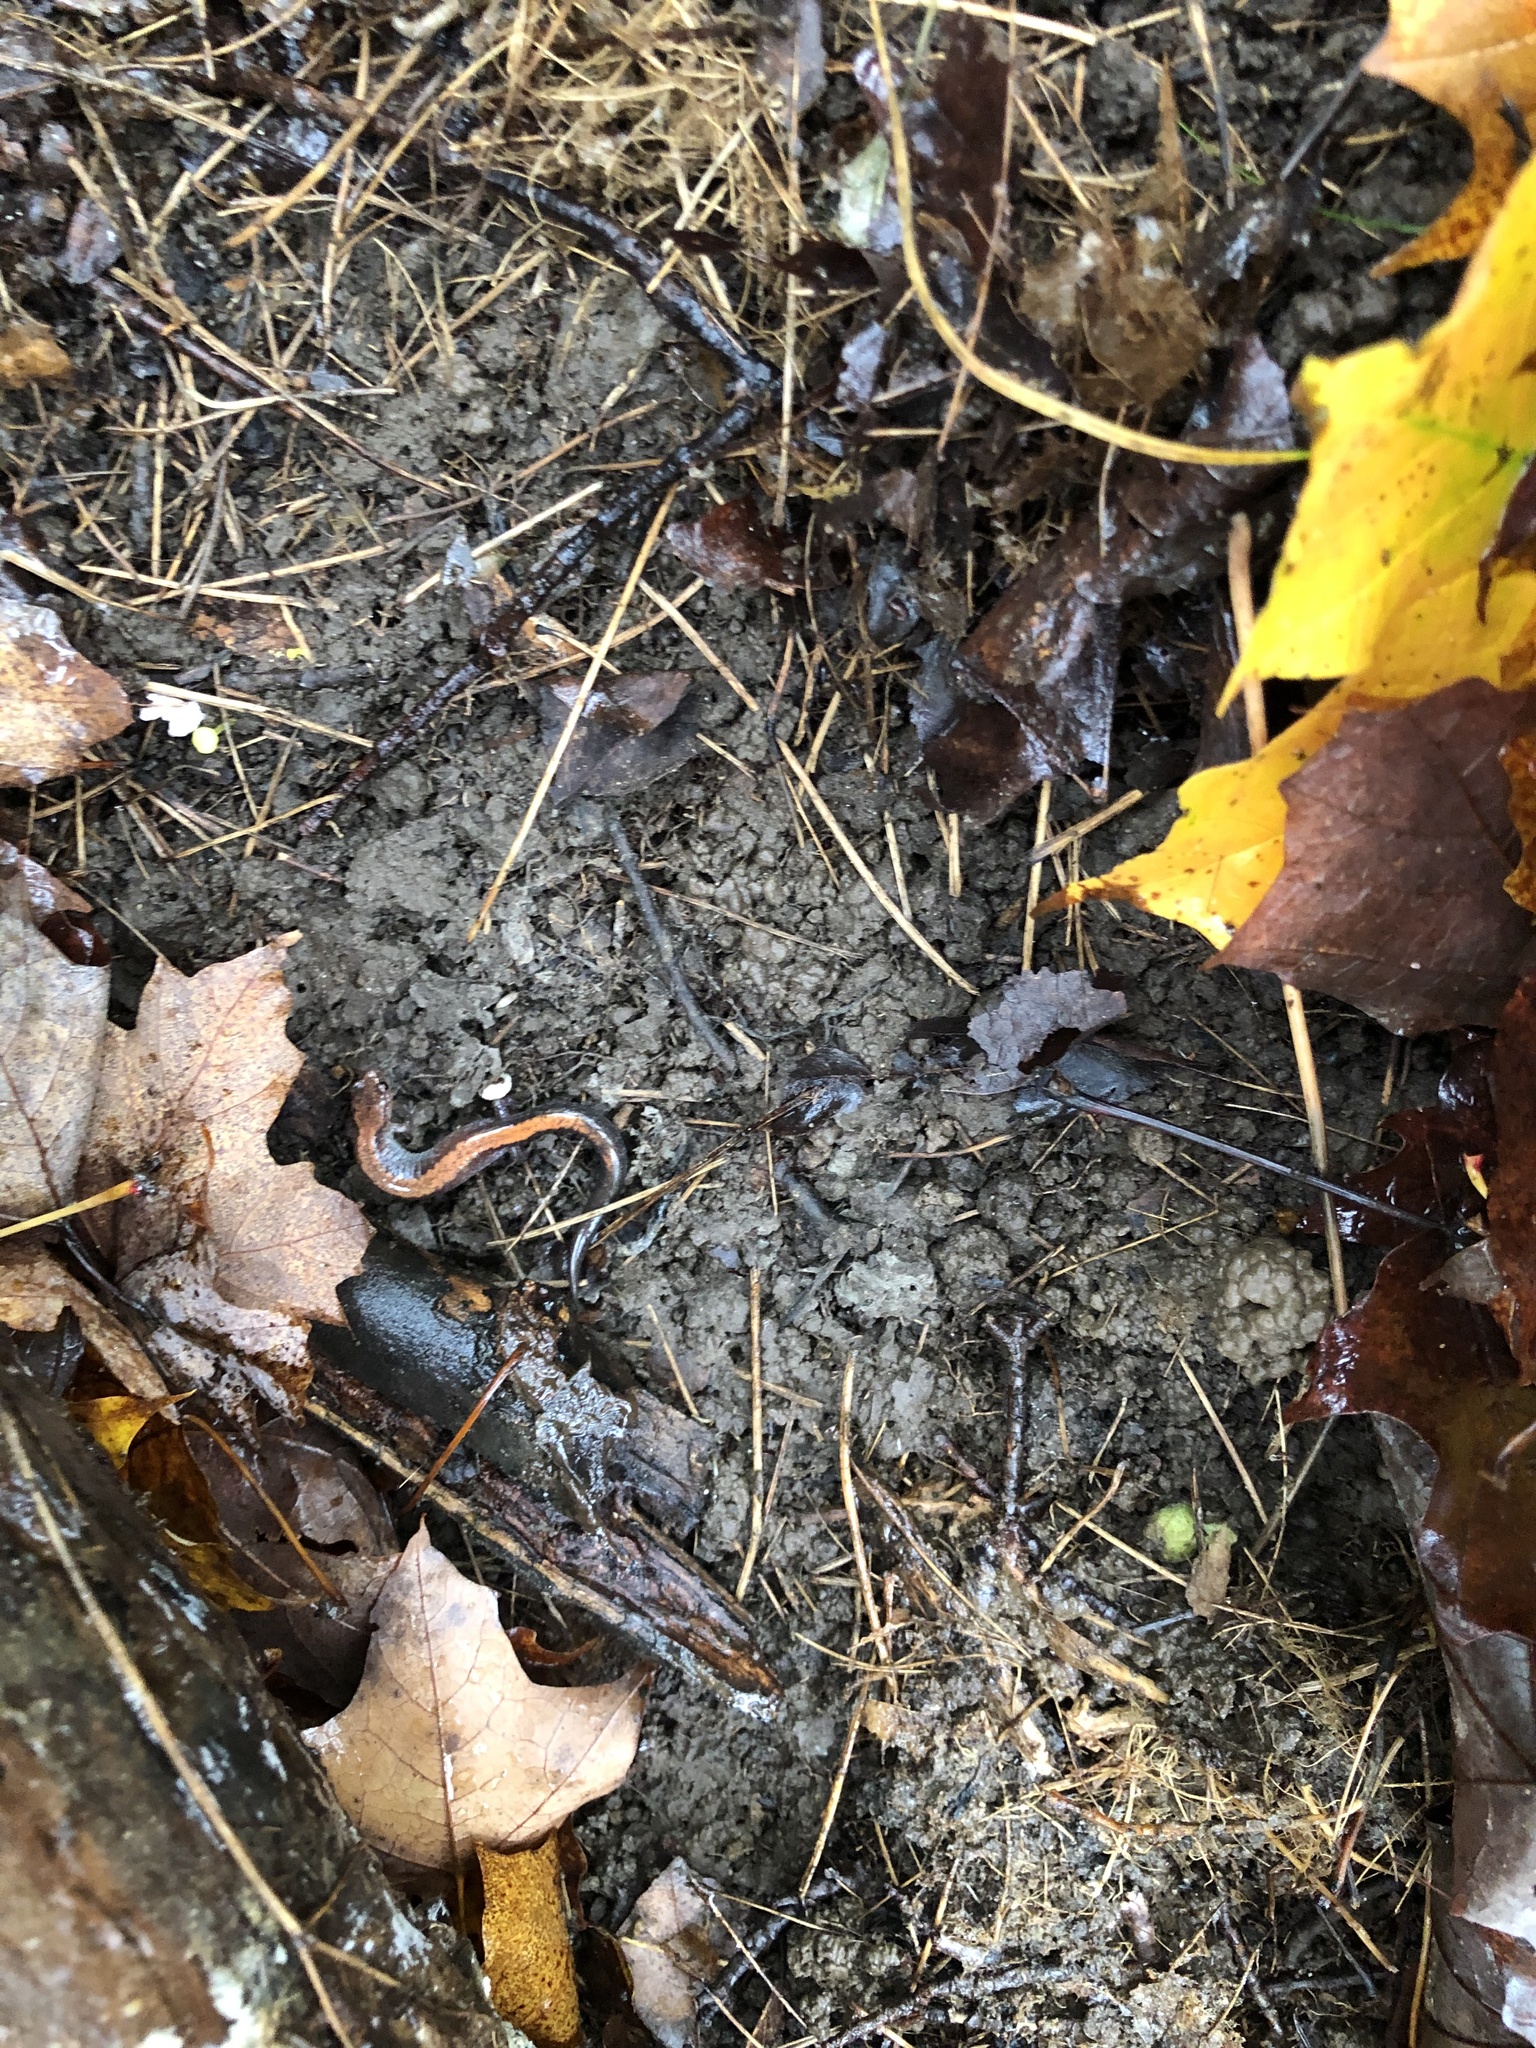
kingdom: Animalia
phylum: Chordata
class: Amphibia
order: Caudata
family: Plethodontidae
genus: Plethodon
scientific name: Plethodon cinereus
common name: Redback salamander
